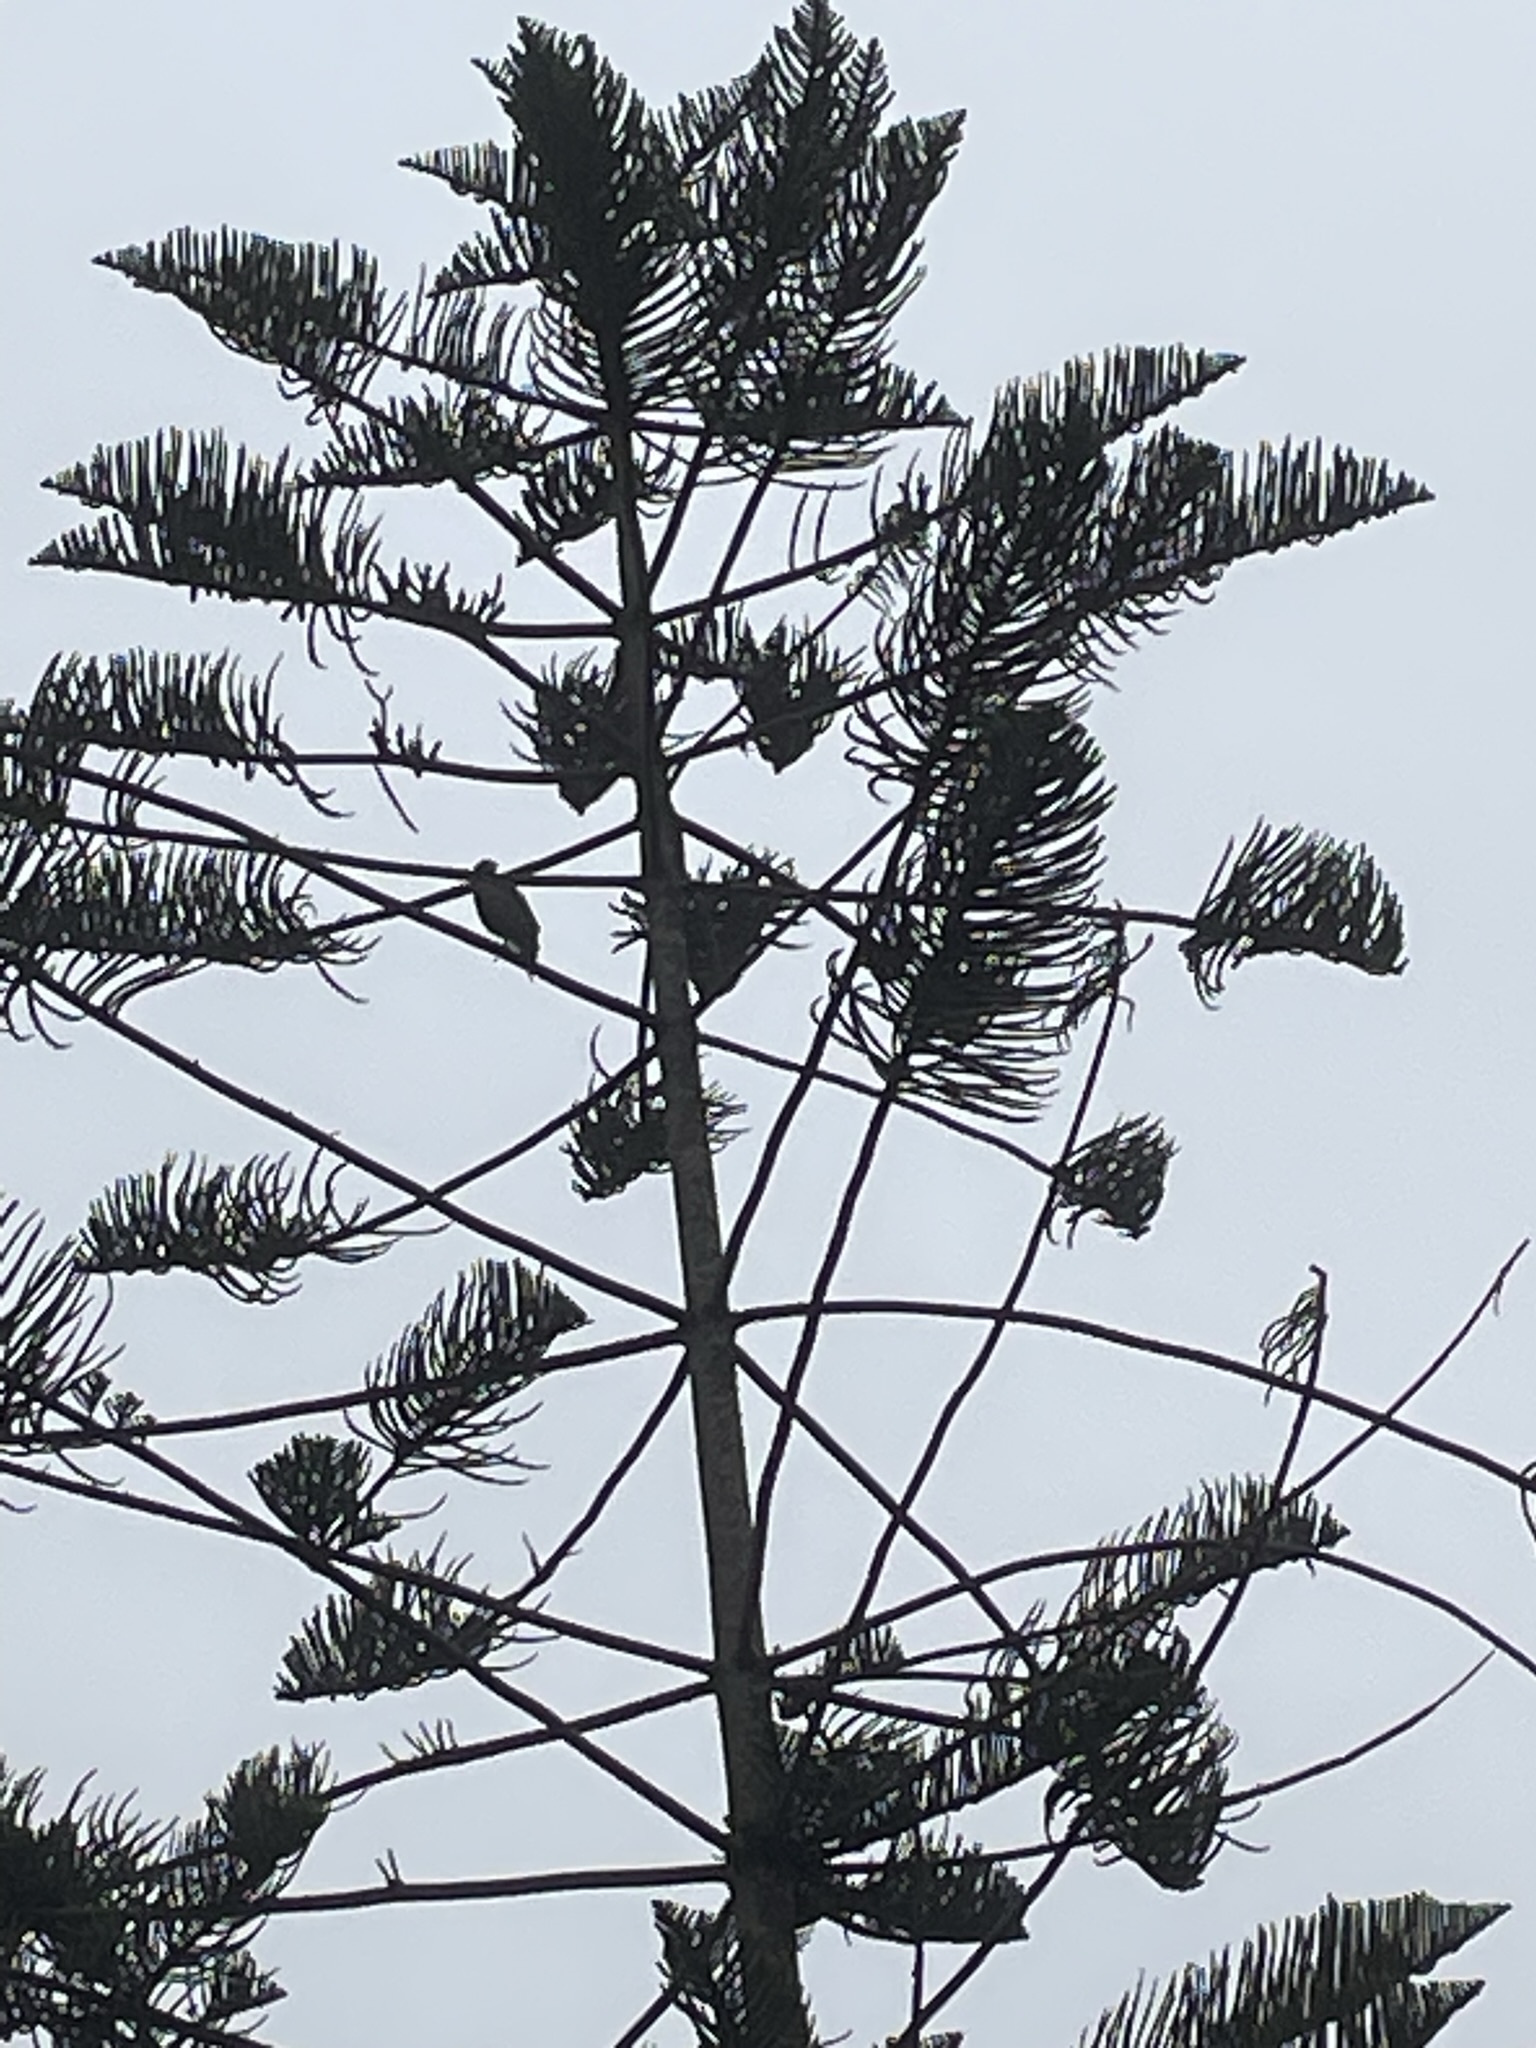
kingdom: Animalia
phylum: Chordata
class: Aves
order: Accipitriformes
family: Accipitridae
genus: Parabuteo
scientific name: Parabuteo unicinctus
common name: Harris's hawk
